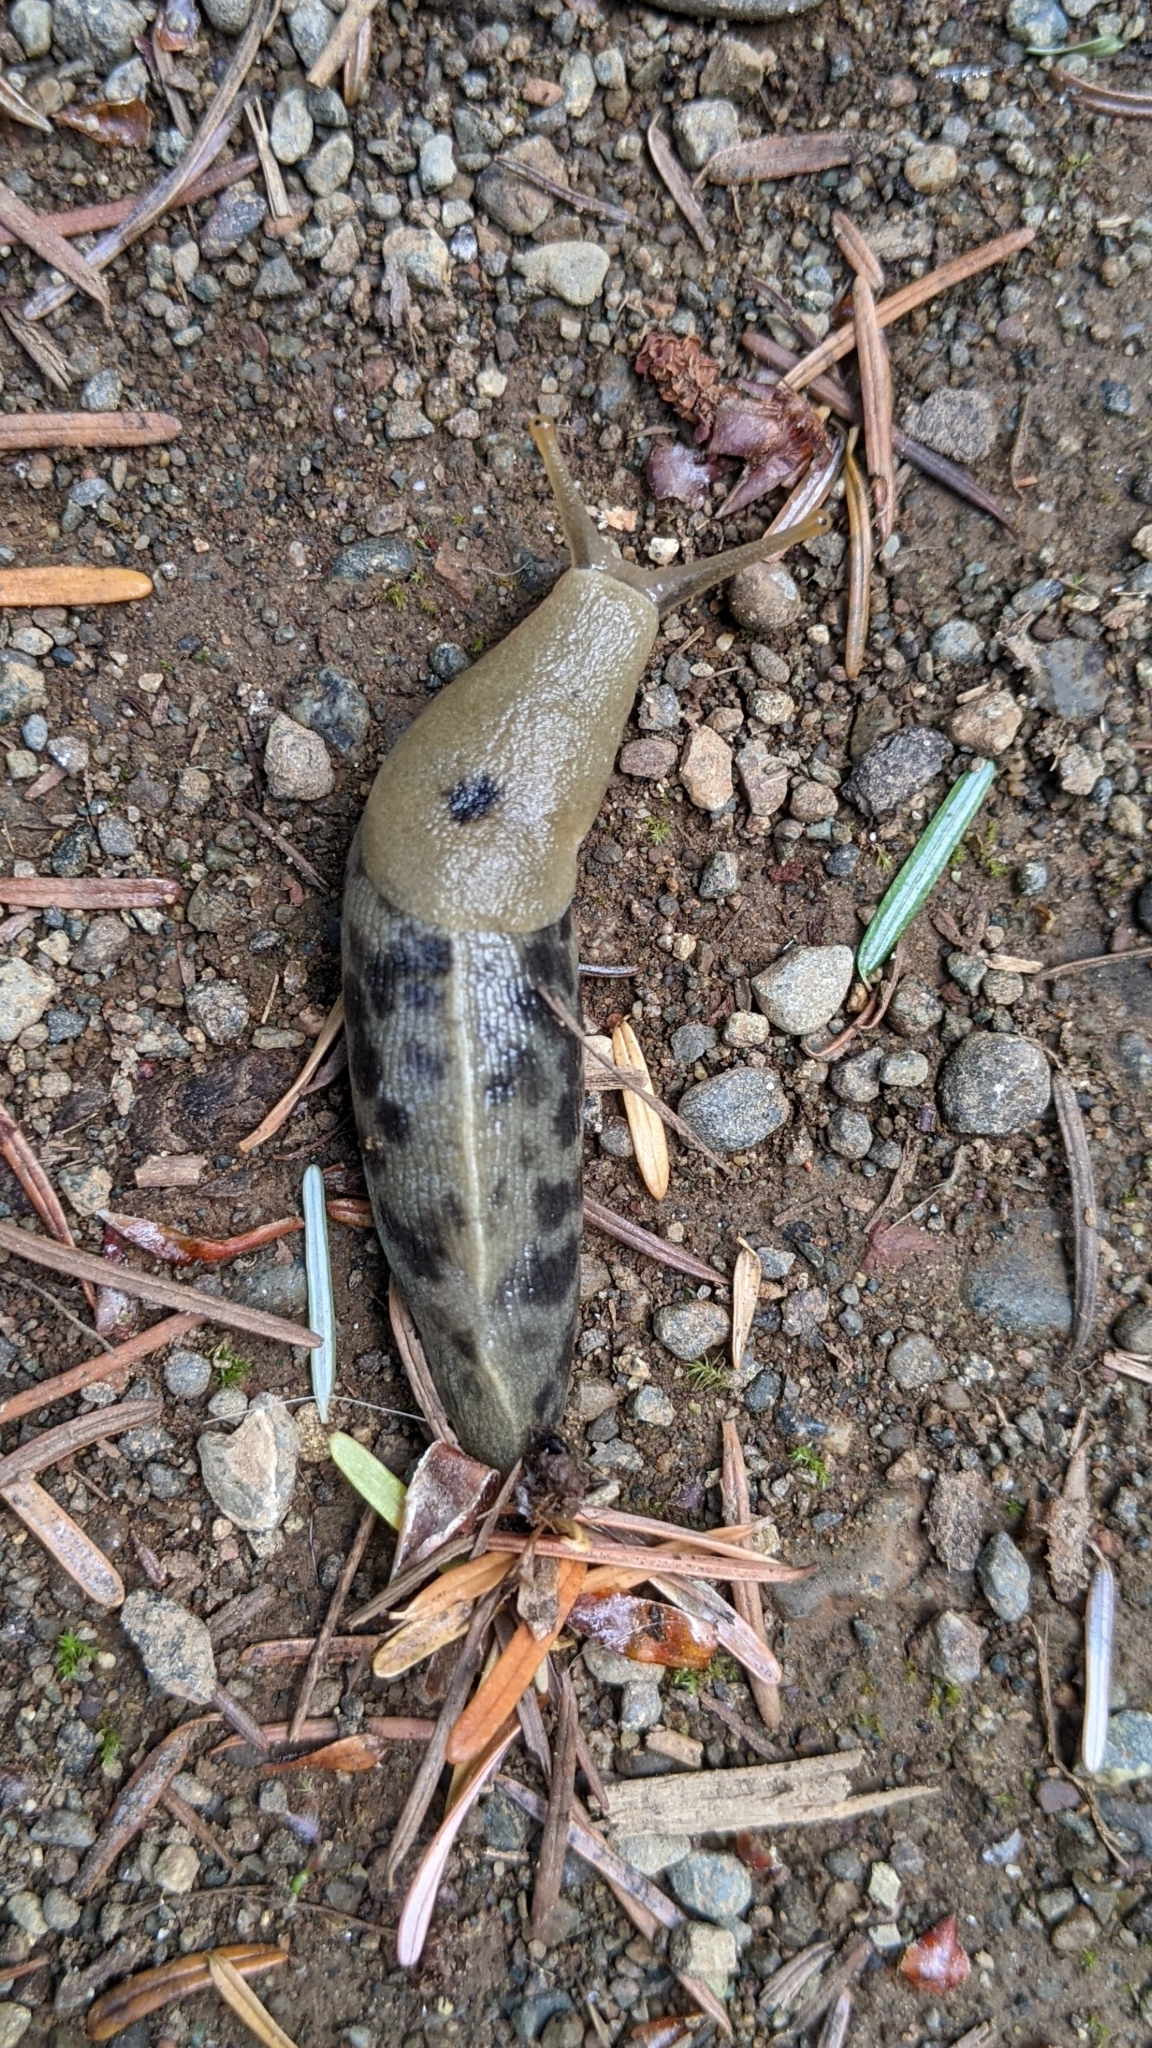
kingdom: Animalia
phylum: Mollusca
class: Gastropoda
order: Stylommatophora
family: Ariolimacidae
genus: Ariolimax
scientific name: Ariolimax columbianus
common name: Pacific banana slug
